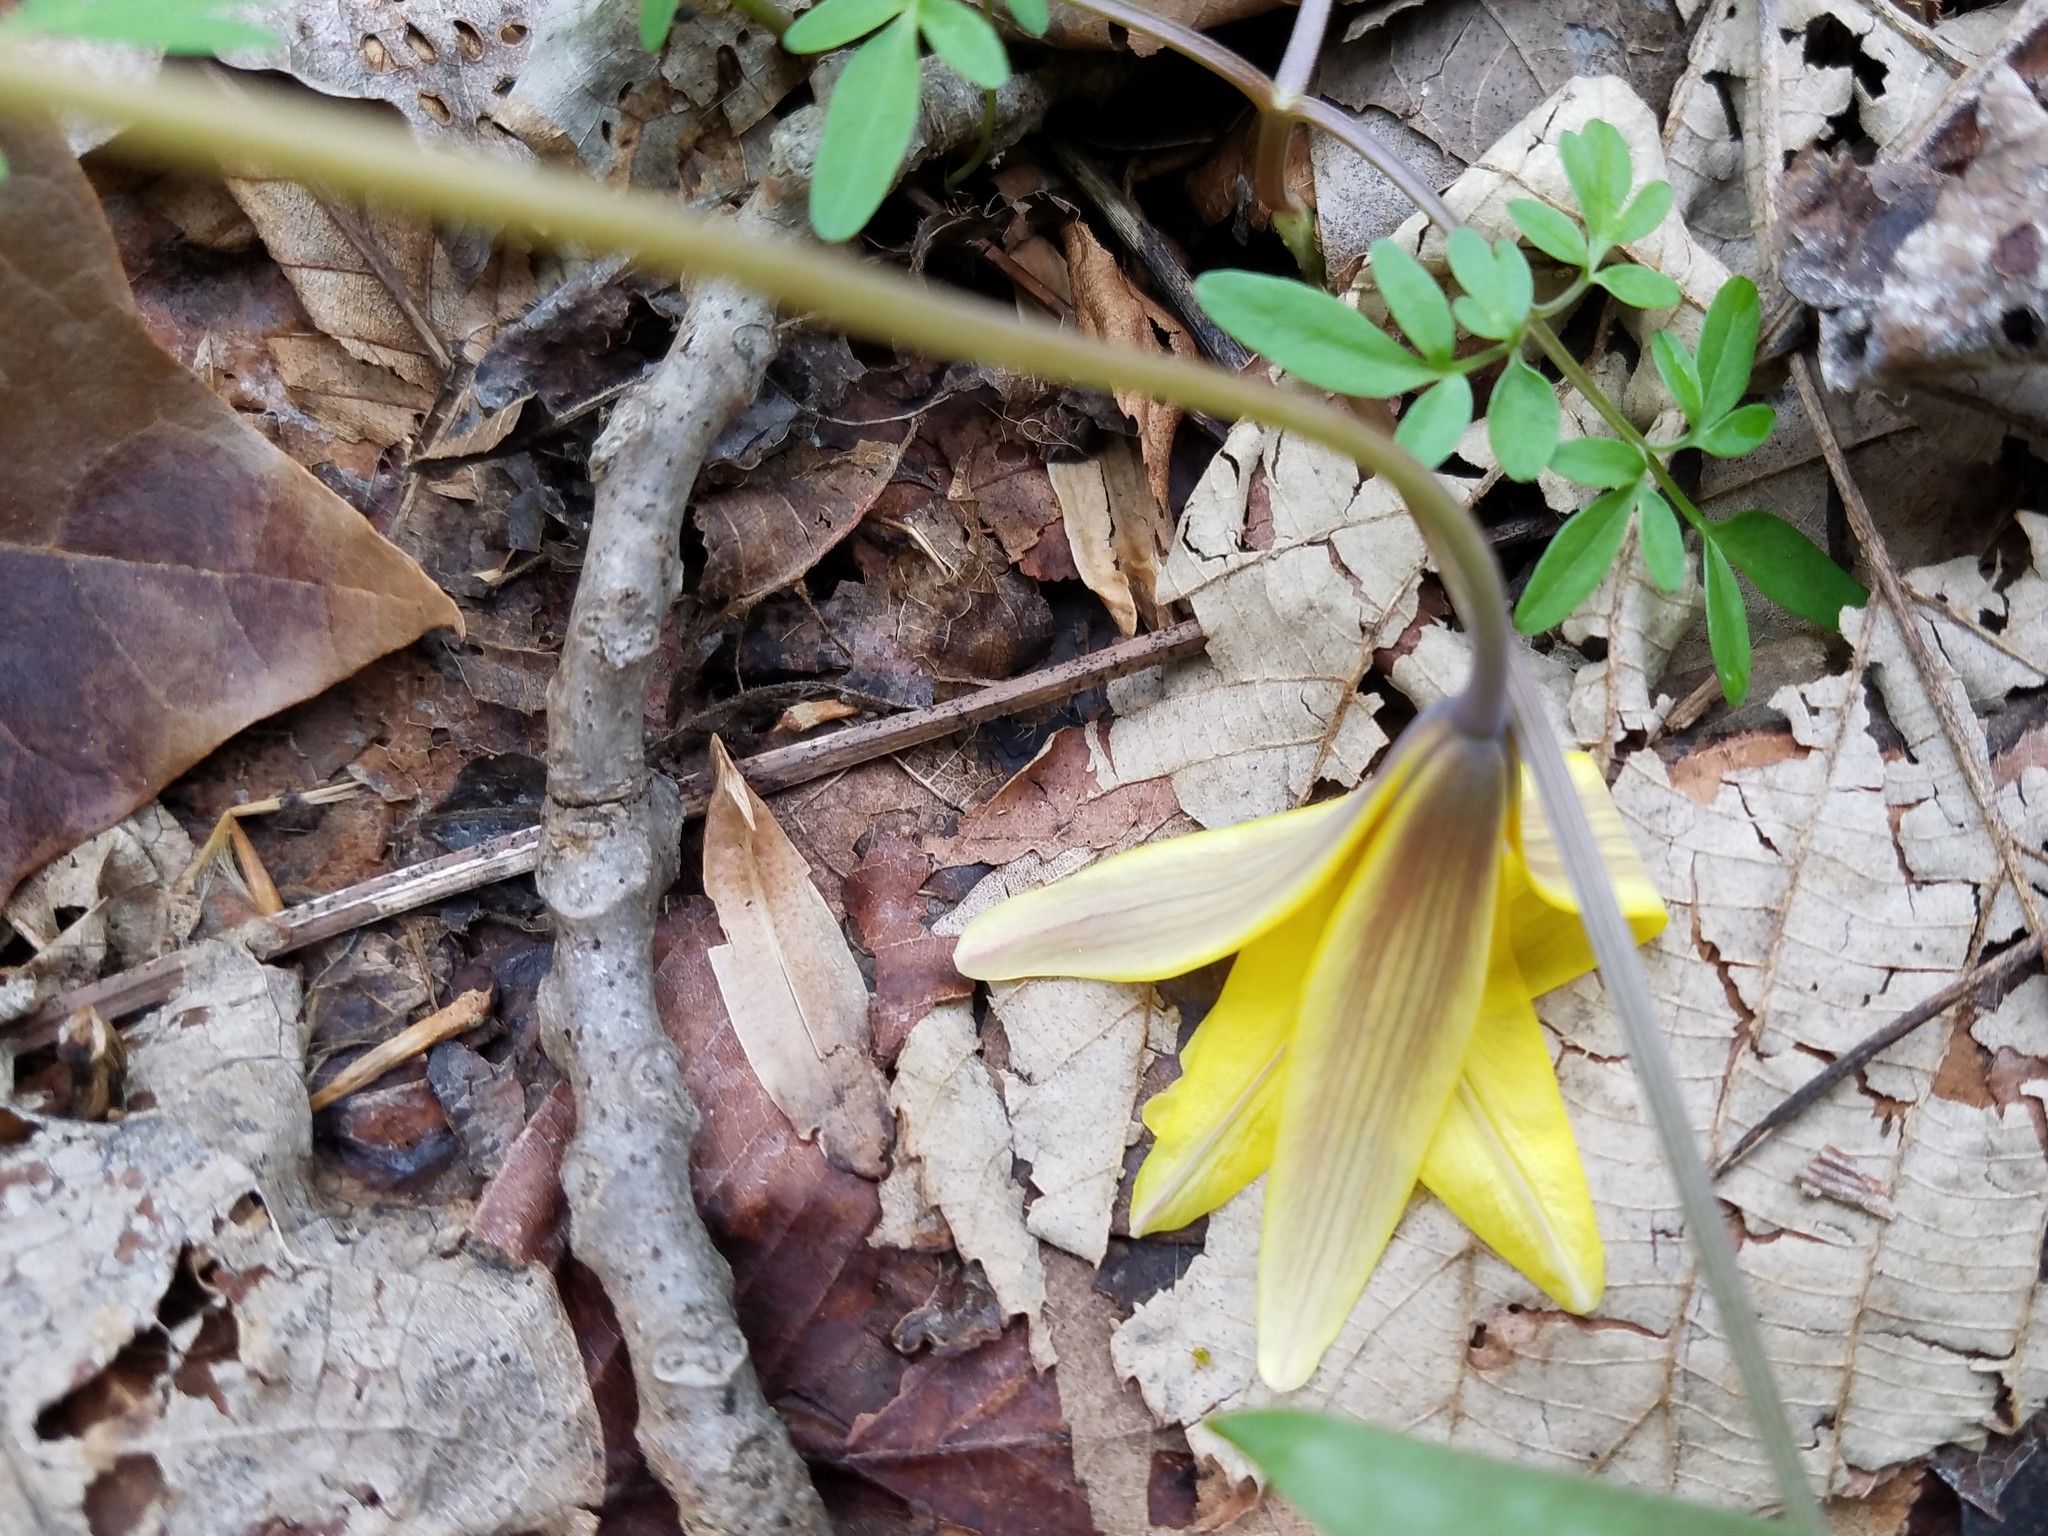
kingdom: Plantae
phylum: Tracheophyta
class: Liliopsida
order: Liliales
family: Liliaceae
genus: Erythronium
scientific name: Erythronium americanum
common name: Yellow adder's-tongue
